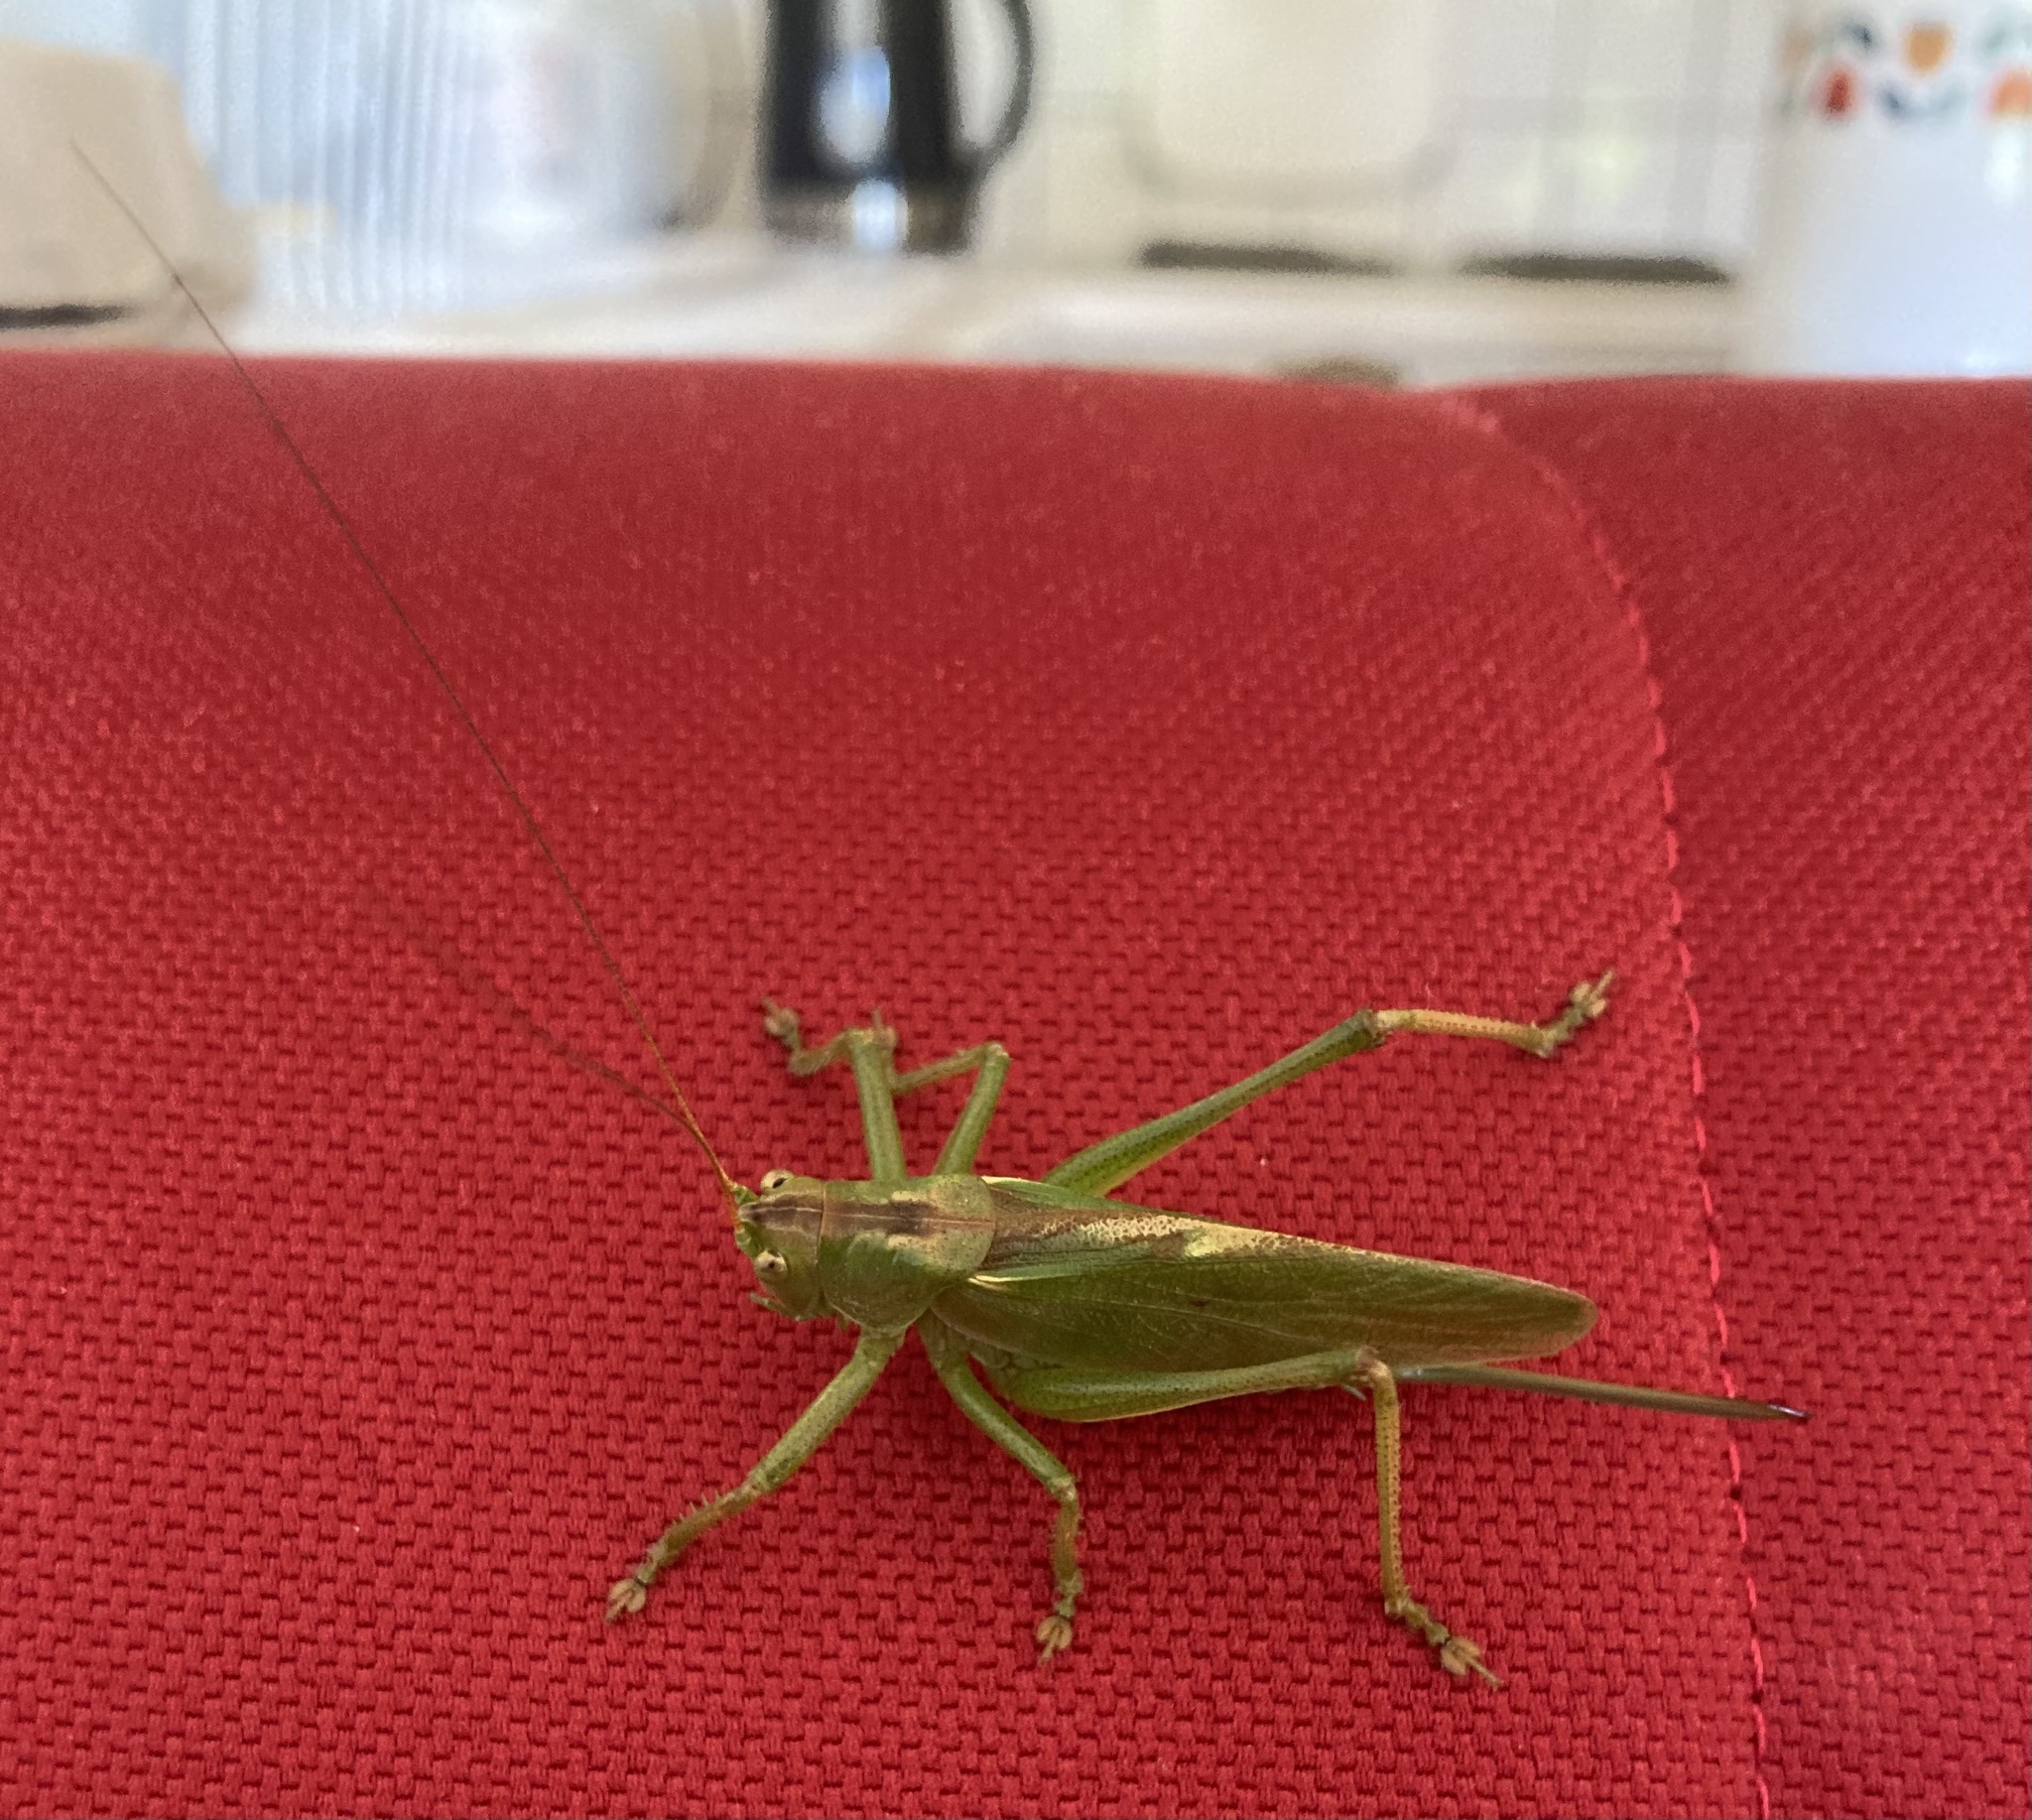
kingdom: Animalia
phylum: Arthropoda
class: Insecta
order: Orthoptera
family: Tettigoniidae
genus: Tettigonia
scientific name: Tettigonia cantans
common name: Upland green bush-cricket
